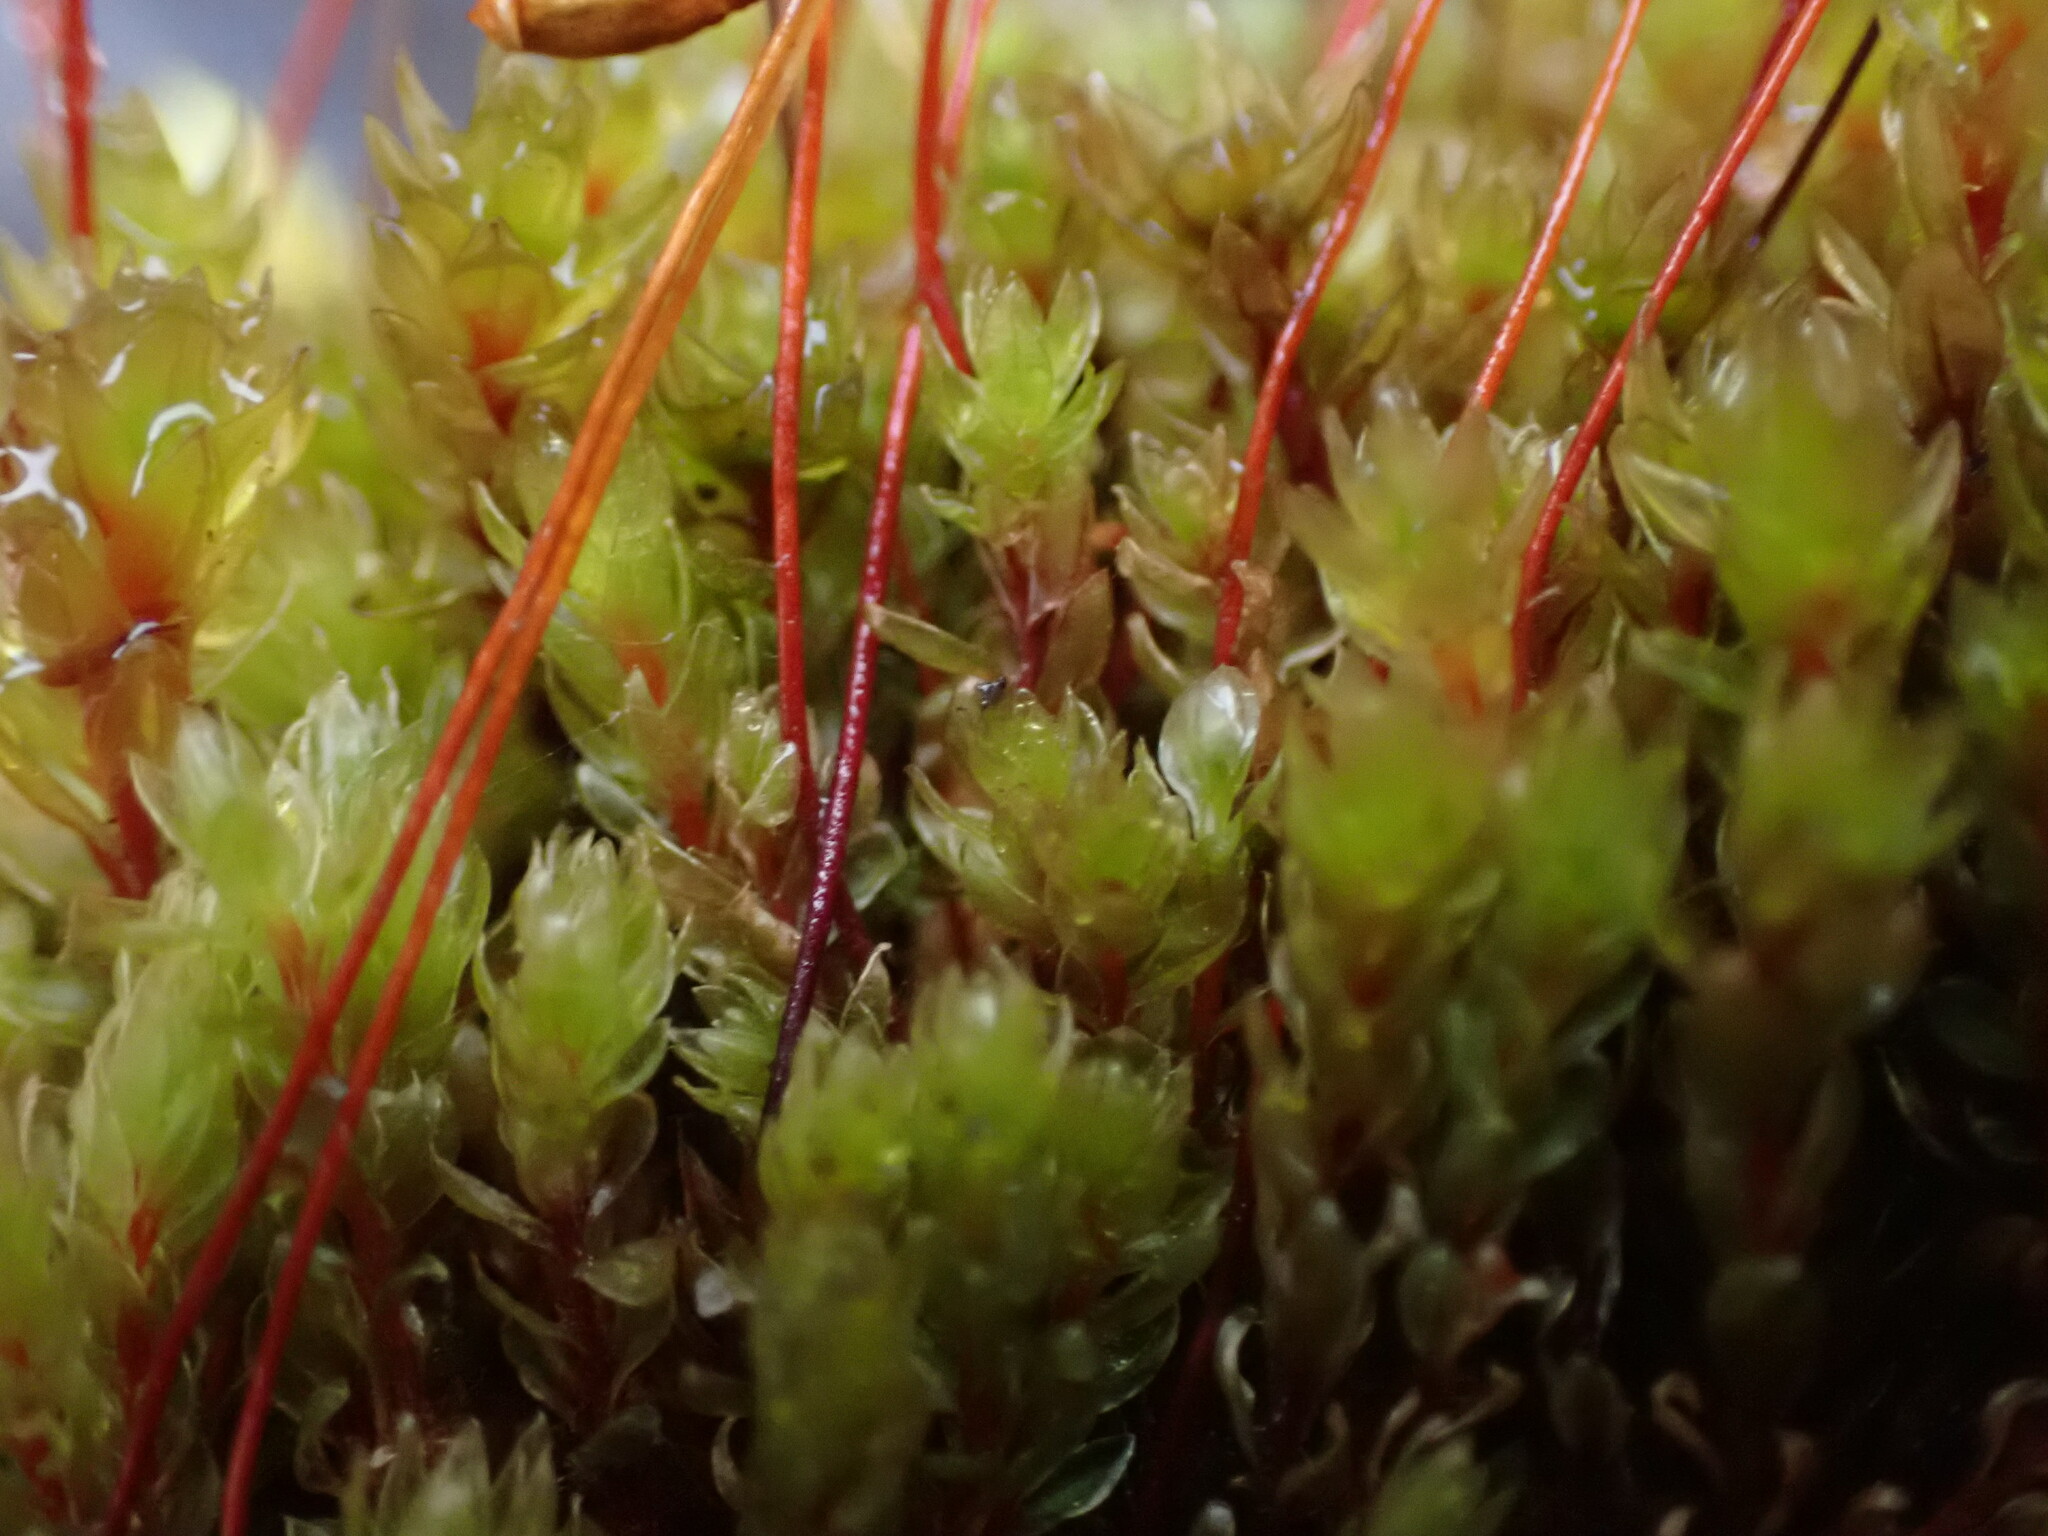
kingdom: Plantae
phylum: Bryophyta
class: Bryopsida
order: Bryales
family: Bryaceae
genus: Ptychostomum
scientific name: Ptychostomum pseudotriquetrum
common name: Long-leaved thread moss
